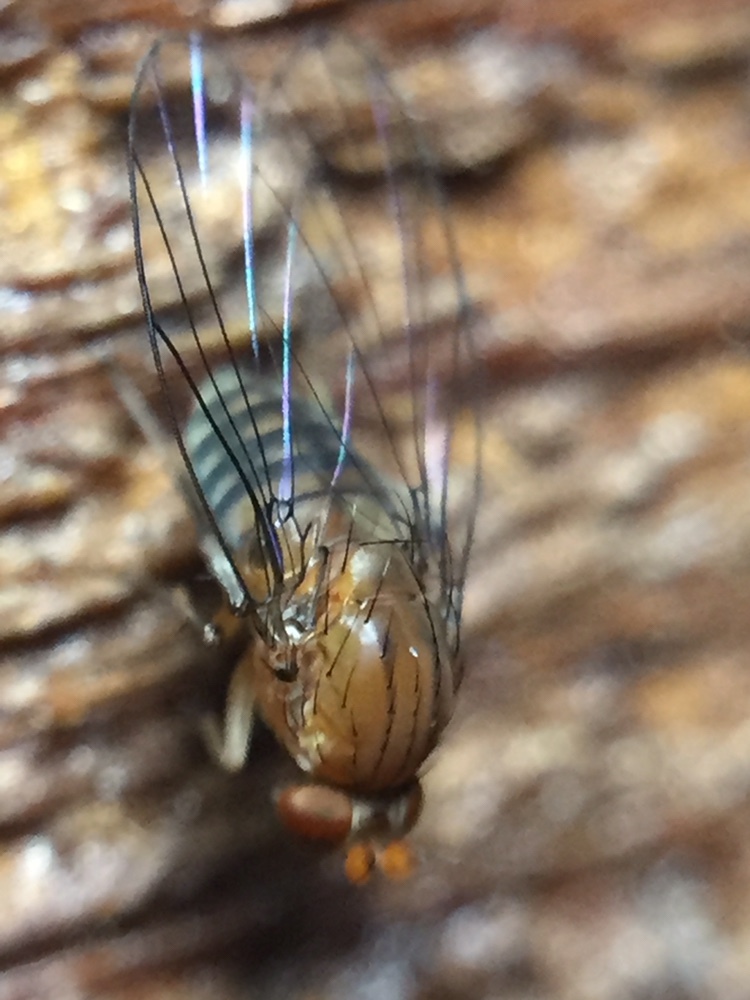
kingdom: Animalia
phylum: Arthropoda
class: Insecta
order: Diptera
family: Phoridae
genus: Sciadocera
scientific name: Sciadocera rufomaculata
